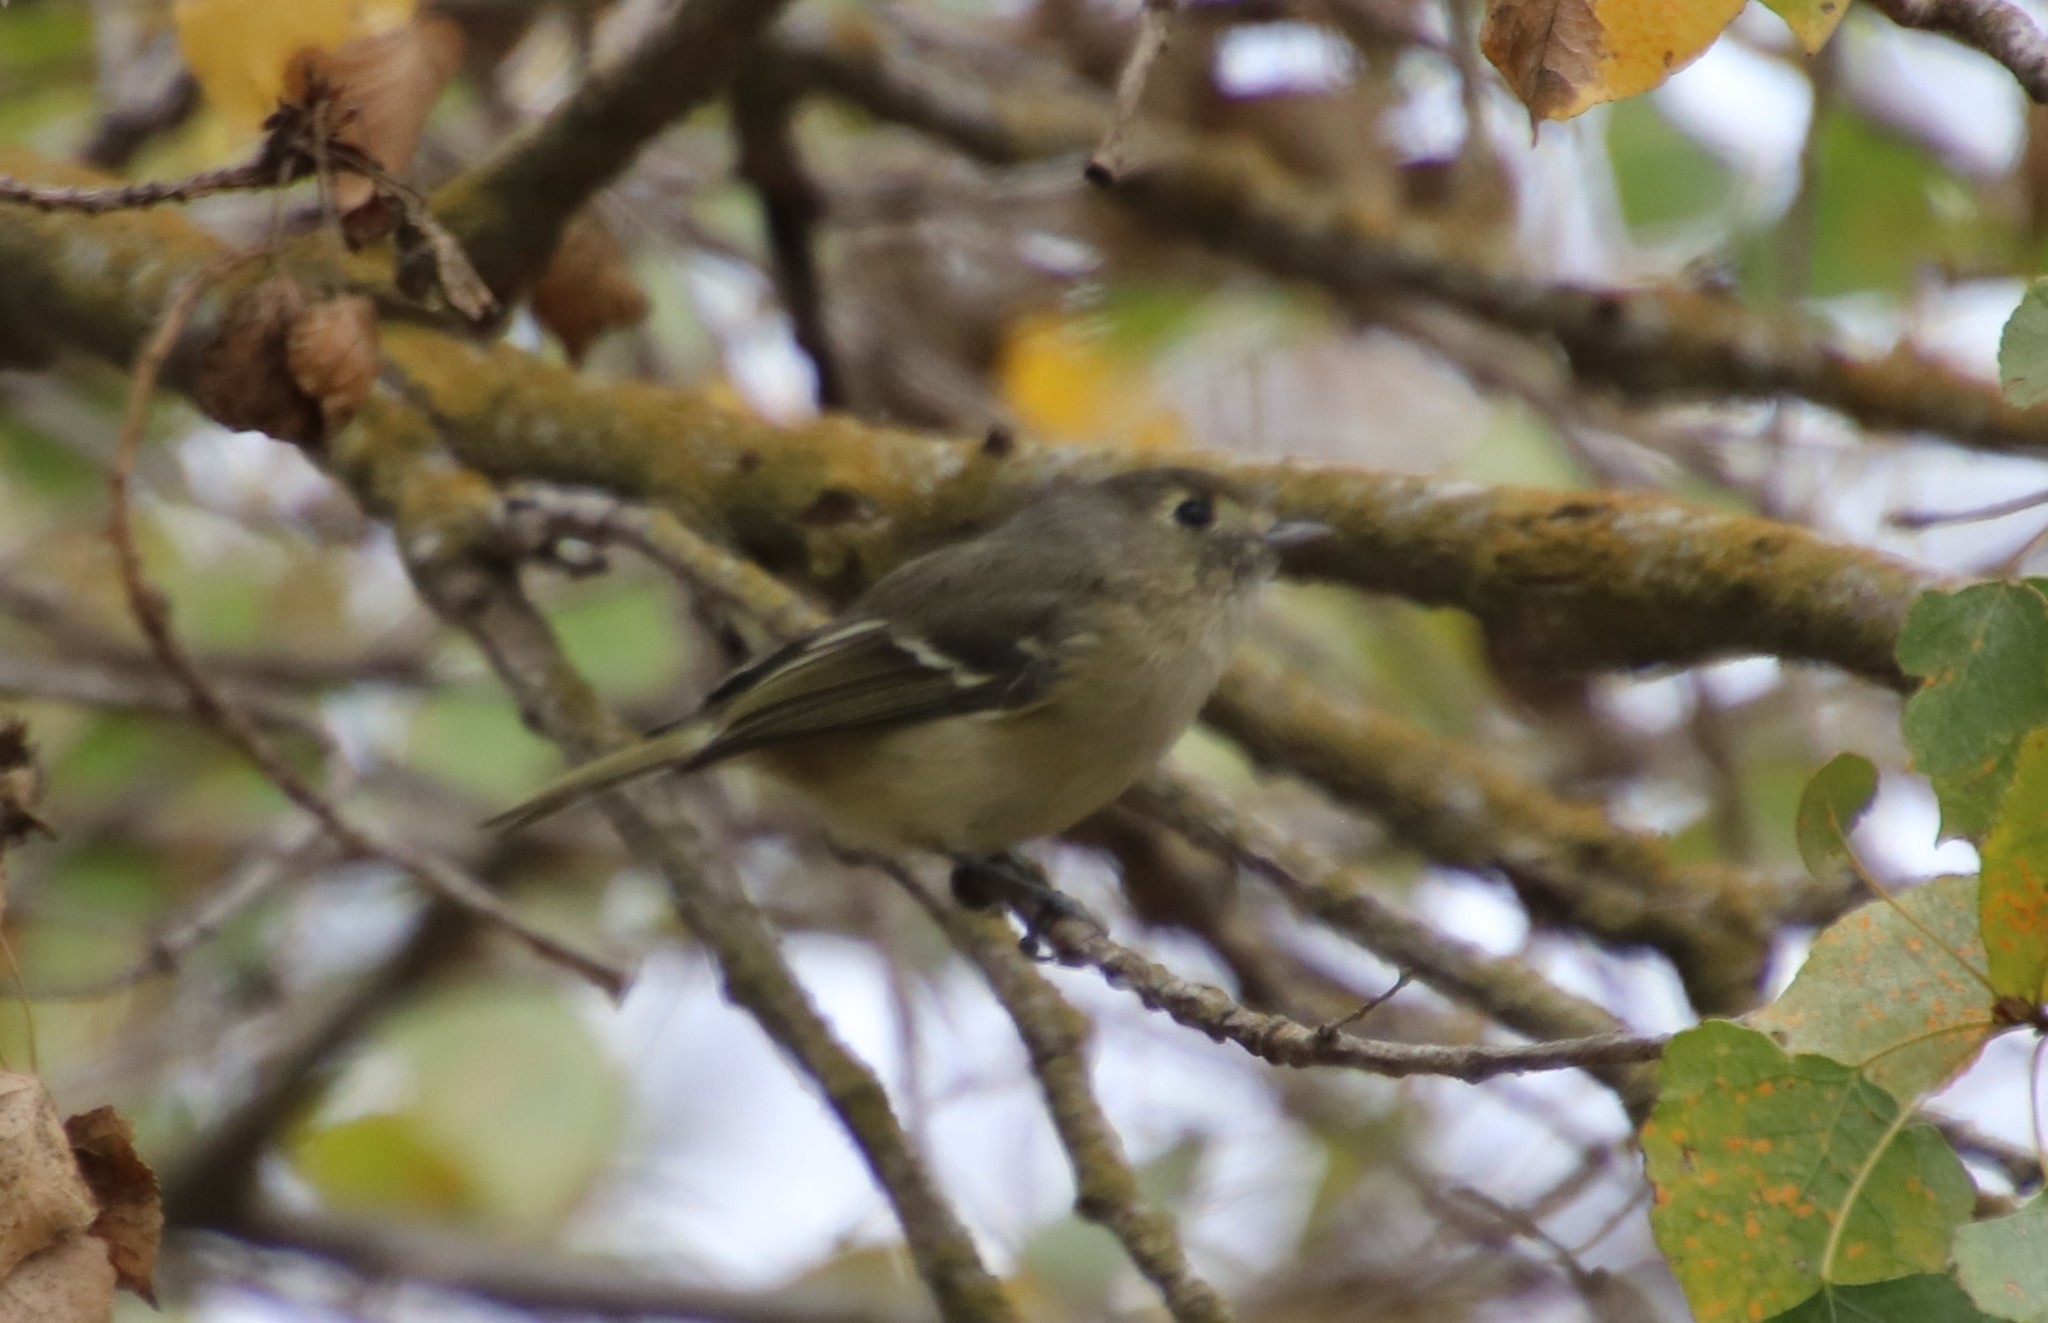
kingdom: Animalia
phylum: Chordata
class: Aves
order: Passeriformes
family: Vireonidae
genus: Vireo
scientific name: Vireo huttoni
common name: Hutton's vireo
